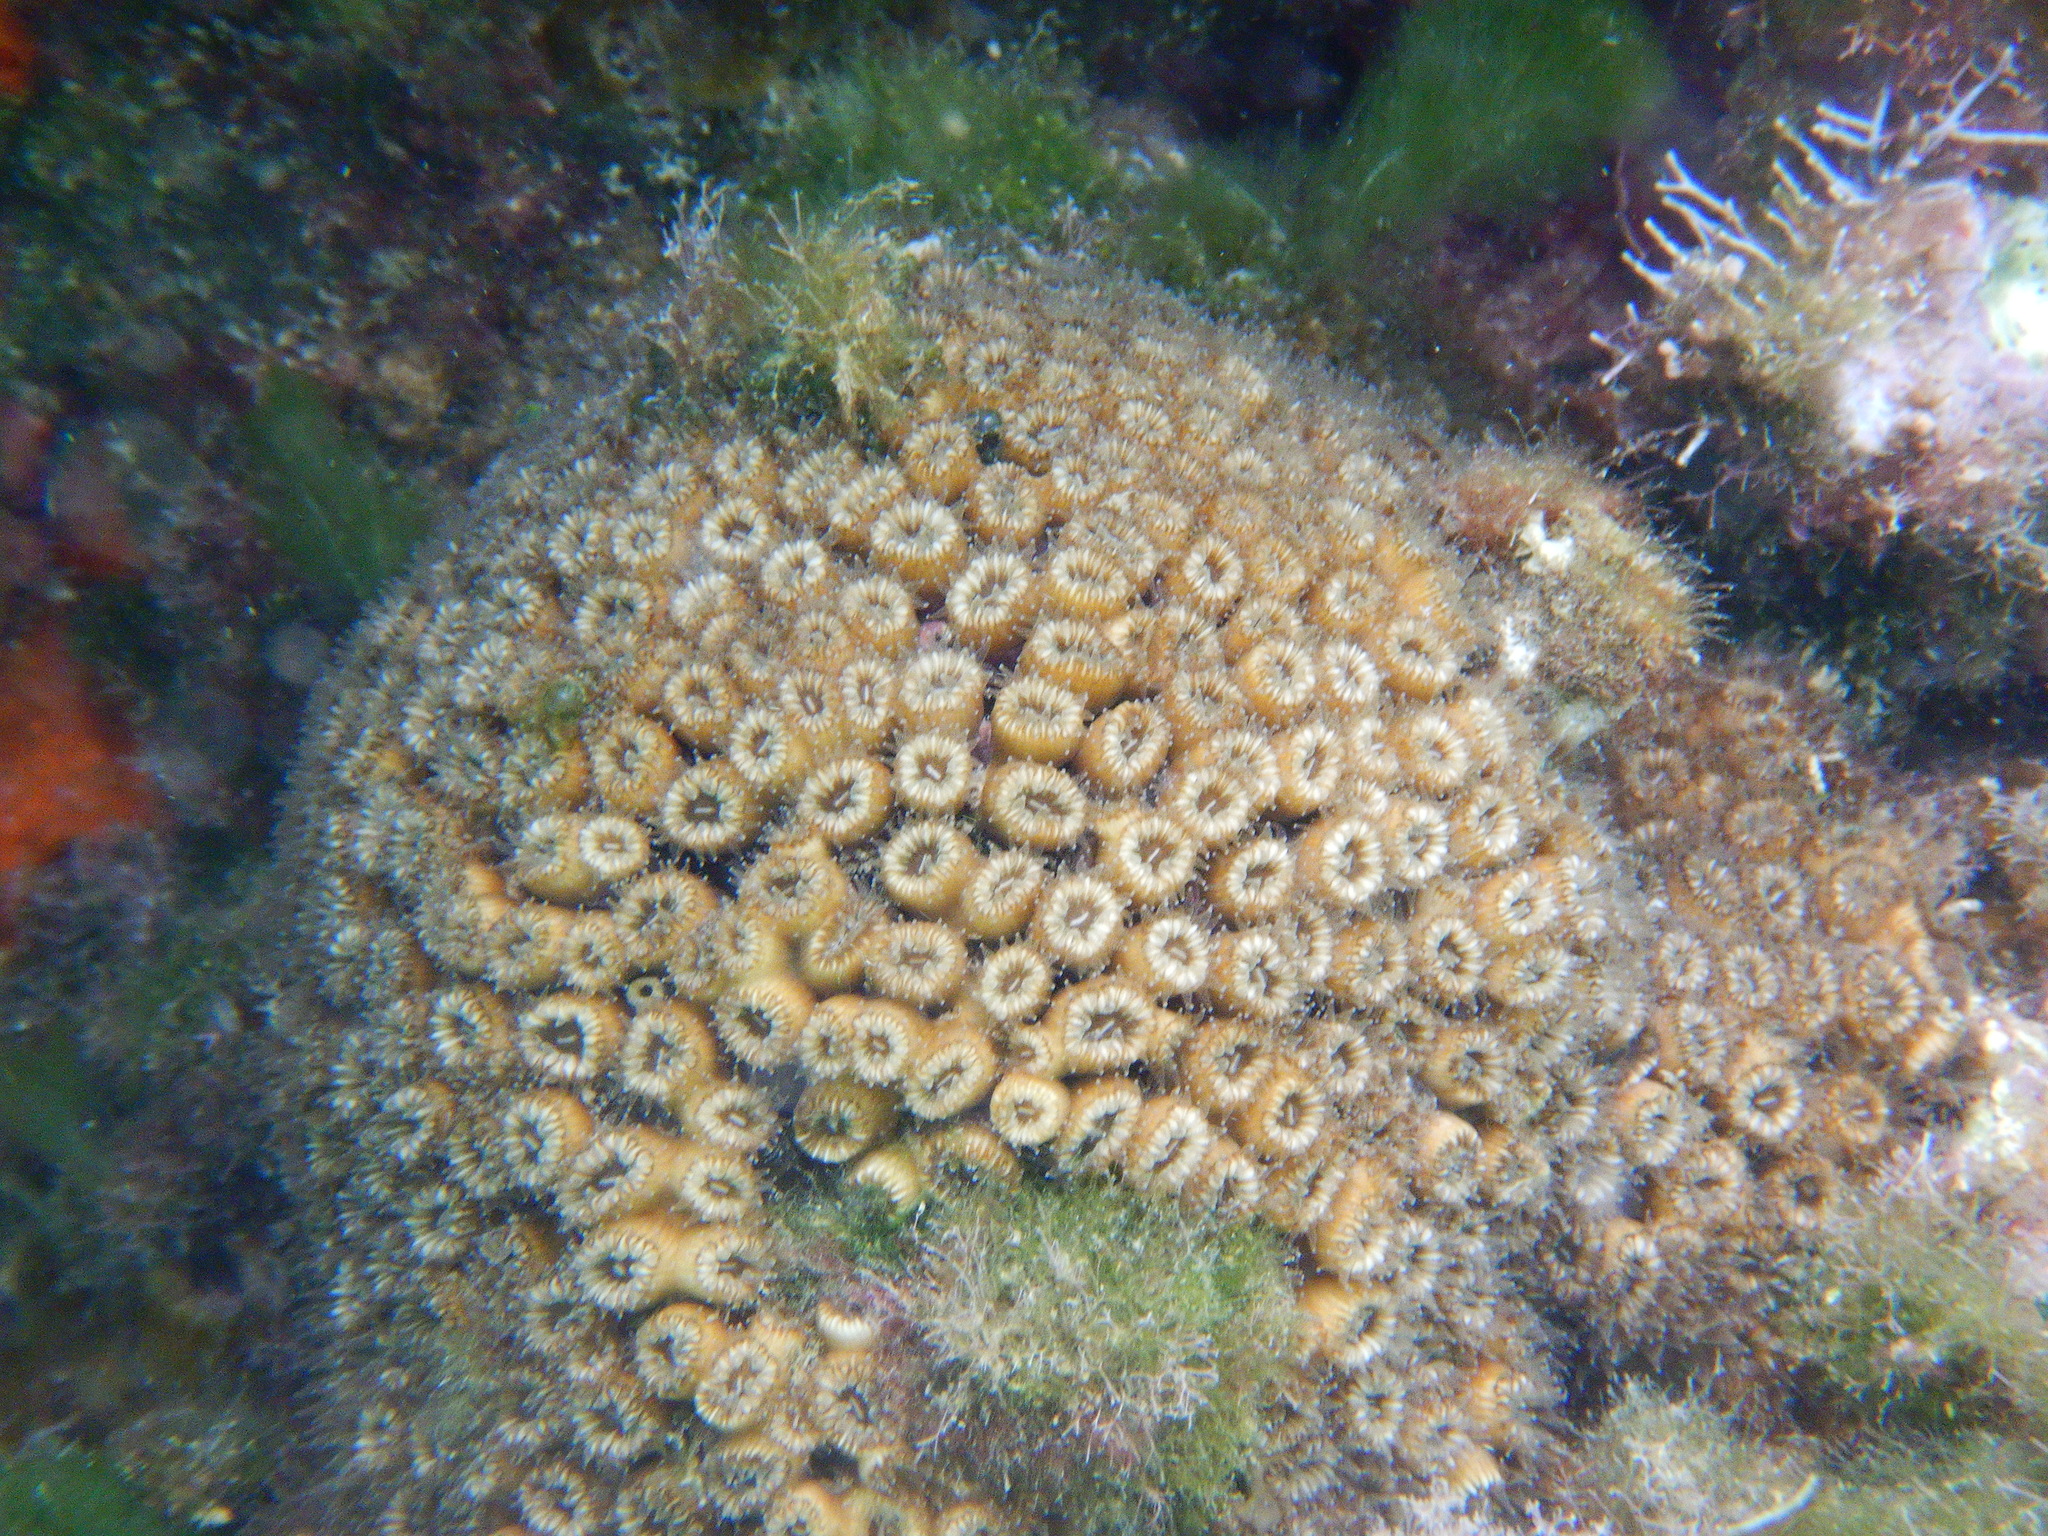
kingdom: Animalia
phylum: Cnidaria
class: Anthozoa
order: Scleractinia
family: Cladocoridae
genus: Cladocora
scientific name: Cladocora caespitosa
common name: Cladocora
